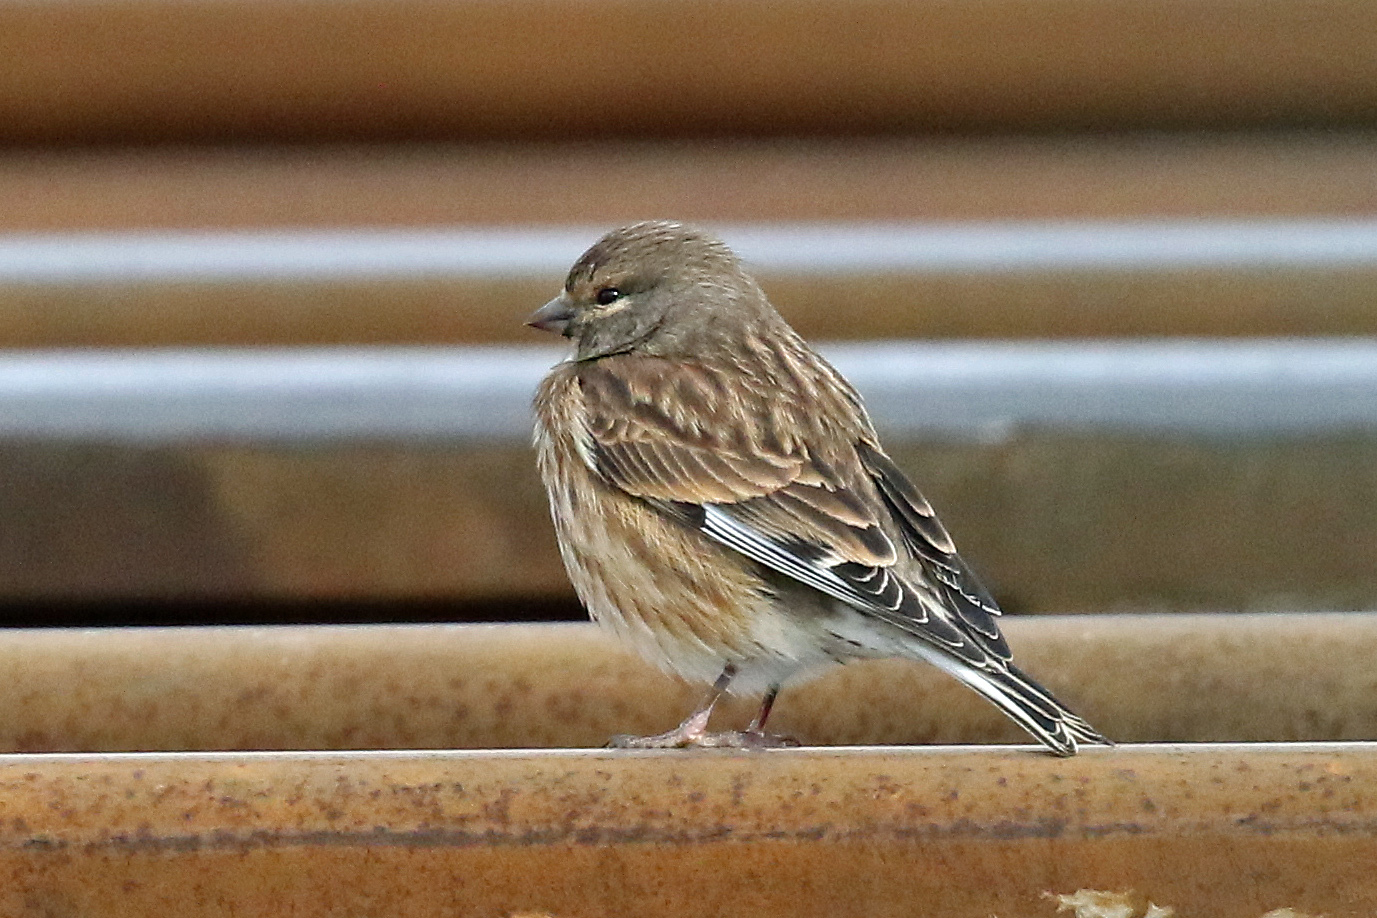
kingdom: Animalia
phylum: Chordata
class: Aves
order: Passeriformes
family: Fringillidae
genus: Linaria
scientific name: Linaria cannabina
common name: Common linnet
